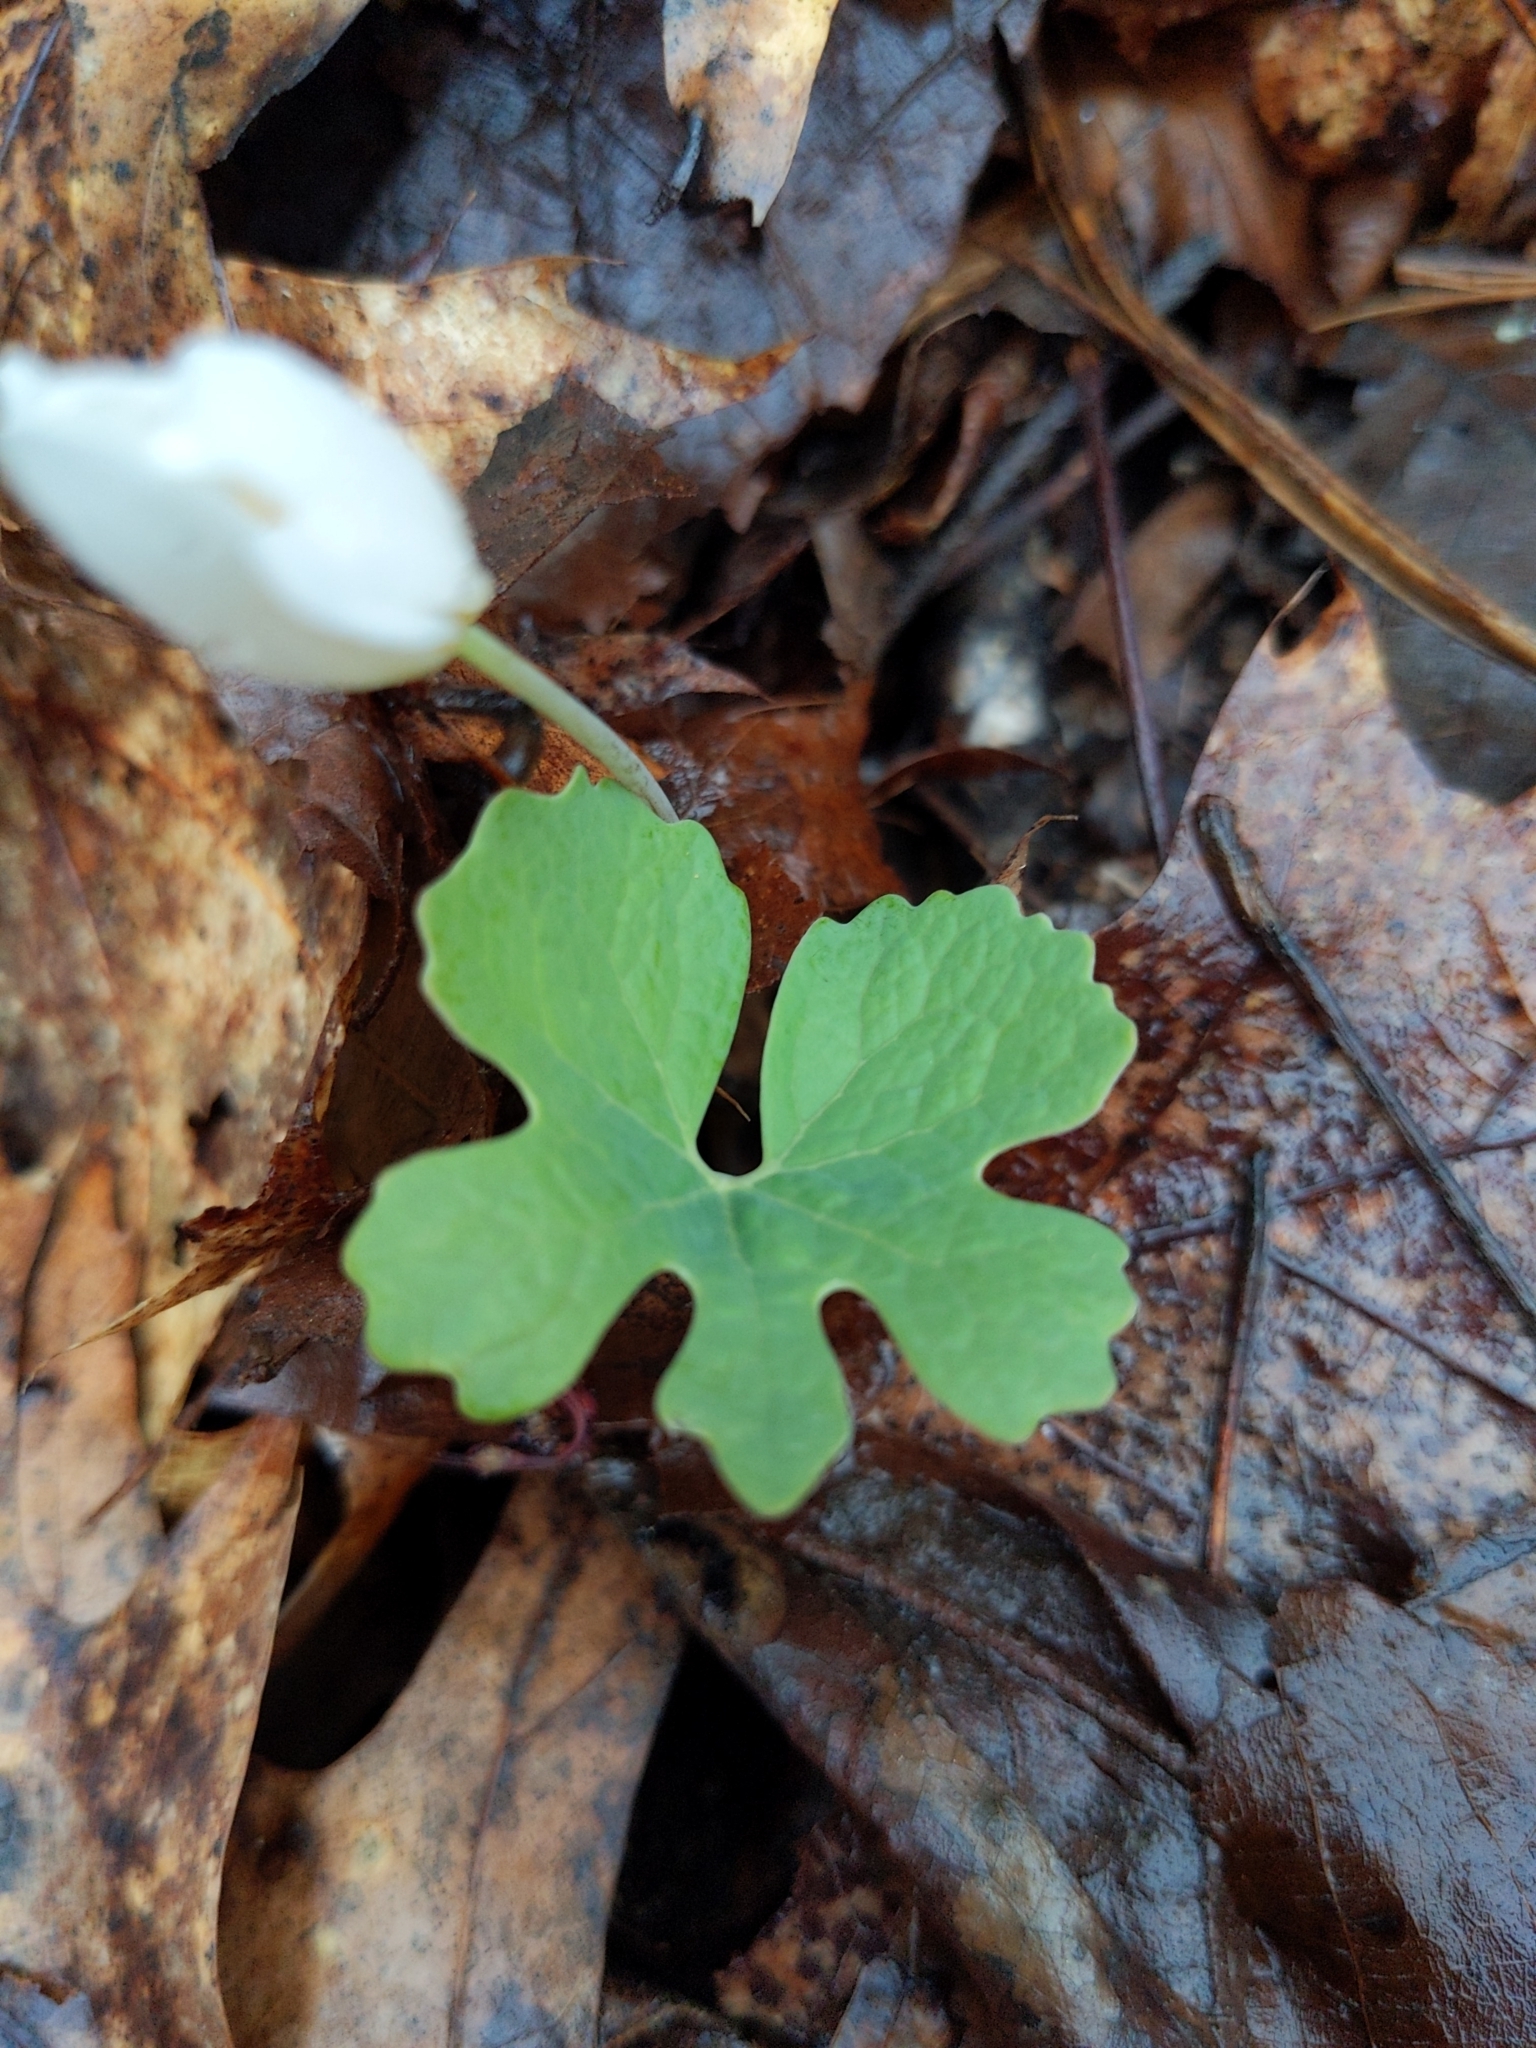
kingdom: Plantae
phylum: Tracheophyta
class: Magnoliopsida
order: Ranunculales
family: Papaveraceae
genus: Sanguinaria
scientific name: Sanguinaria canadensis
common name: Bloodroot
